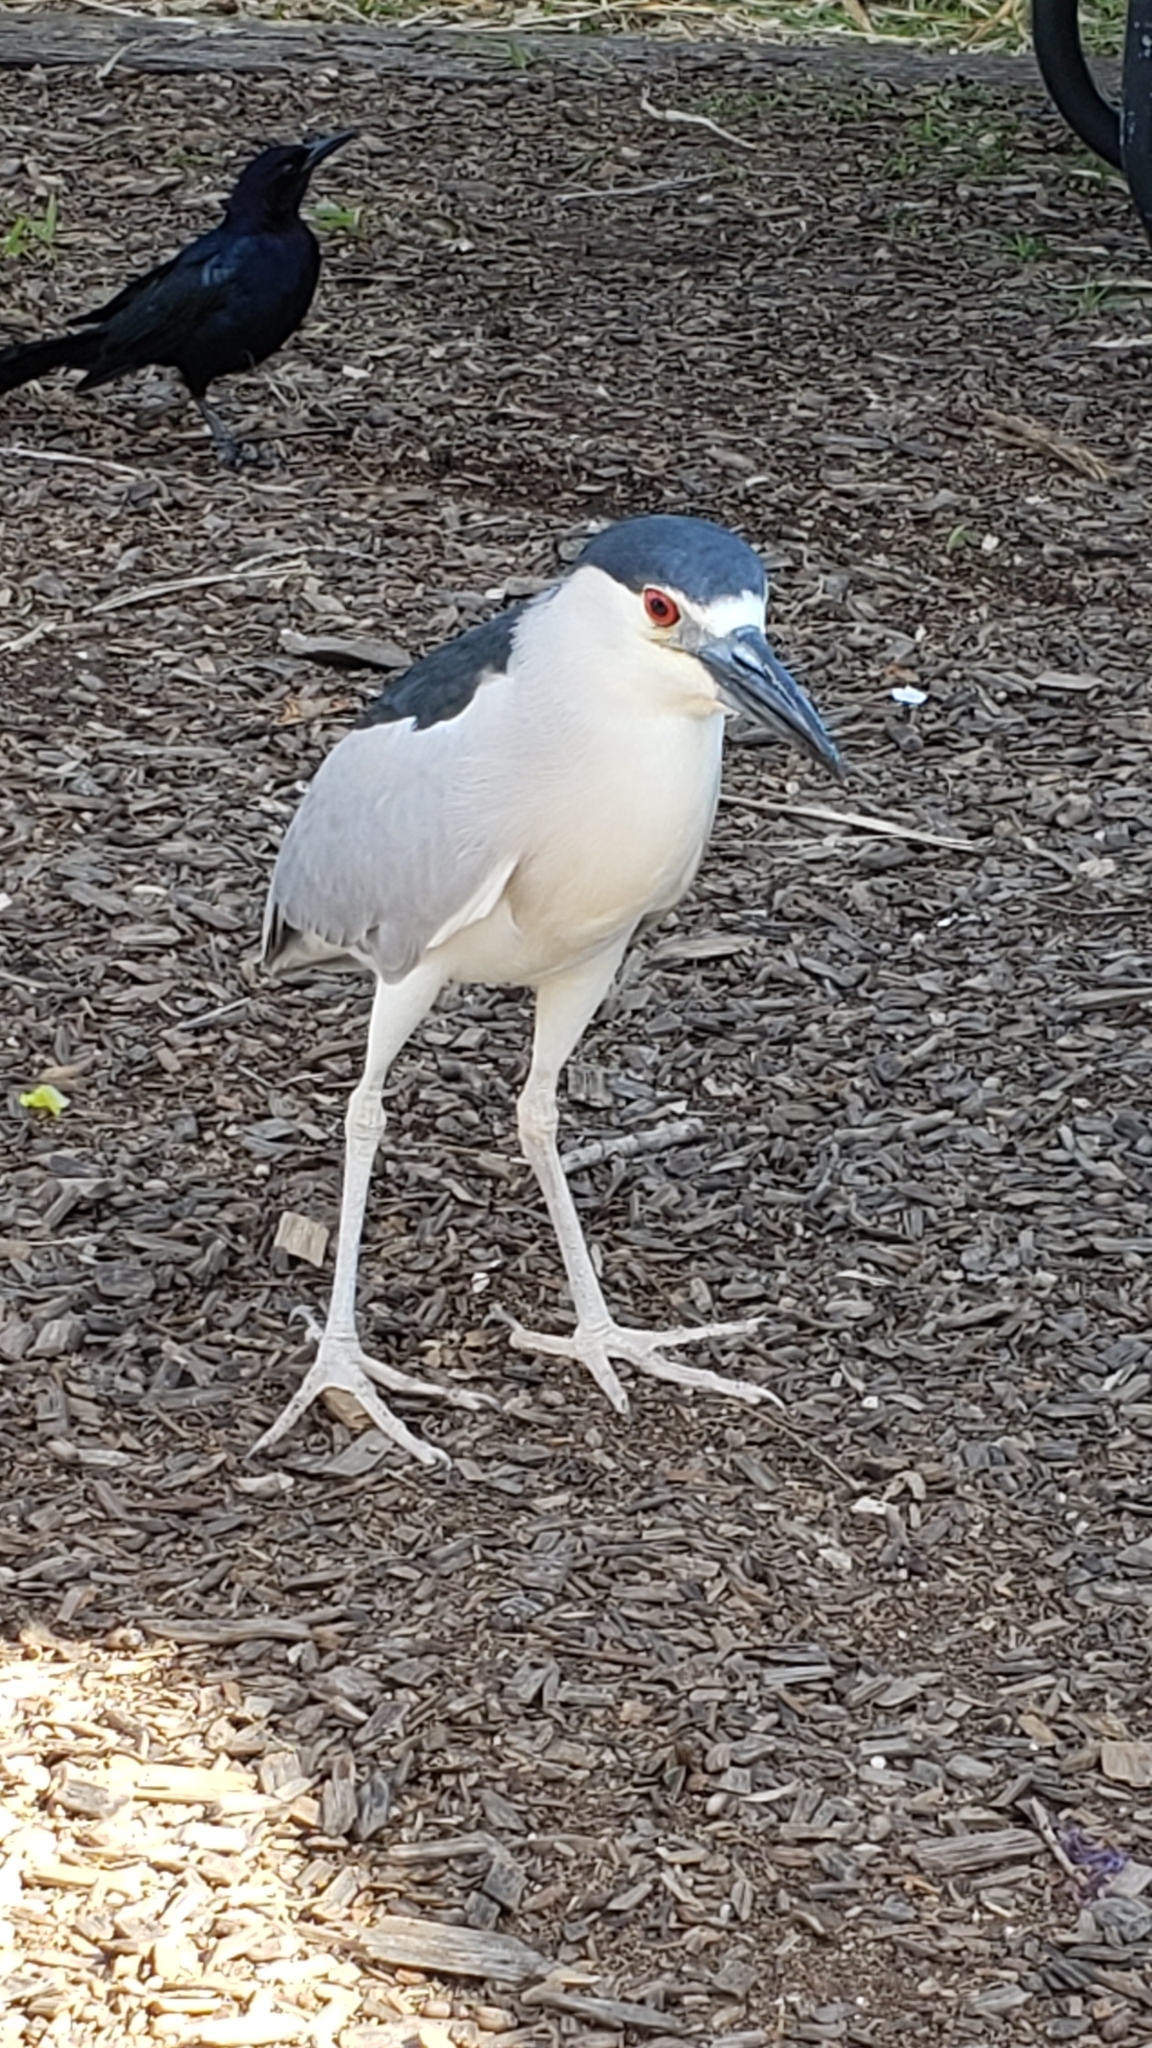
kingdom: Animalia
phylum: Chordata
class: Aves
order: Pelecaniformes
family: Ardeidae
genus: Nycticorax
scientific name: Nycticorax nycticorax
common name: Black-crowned night heron
